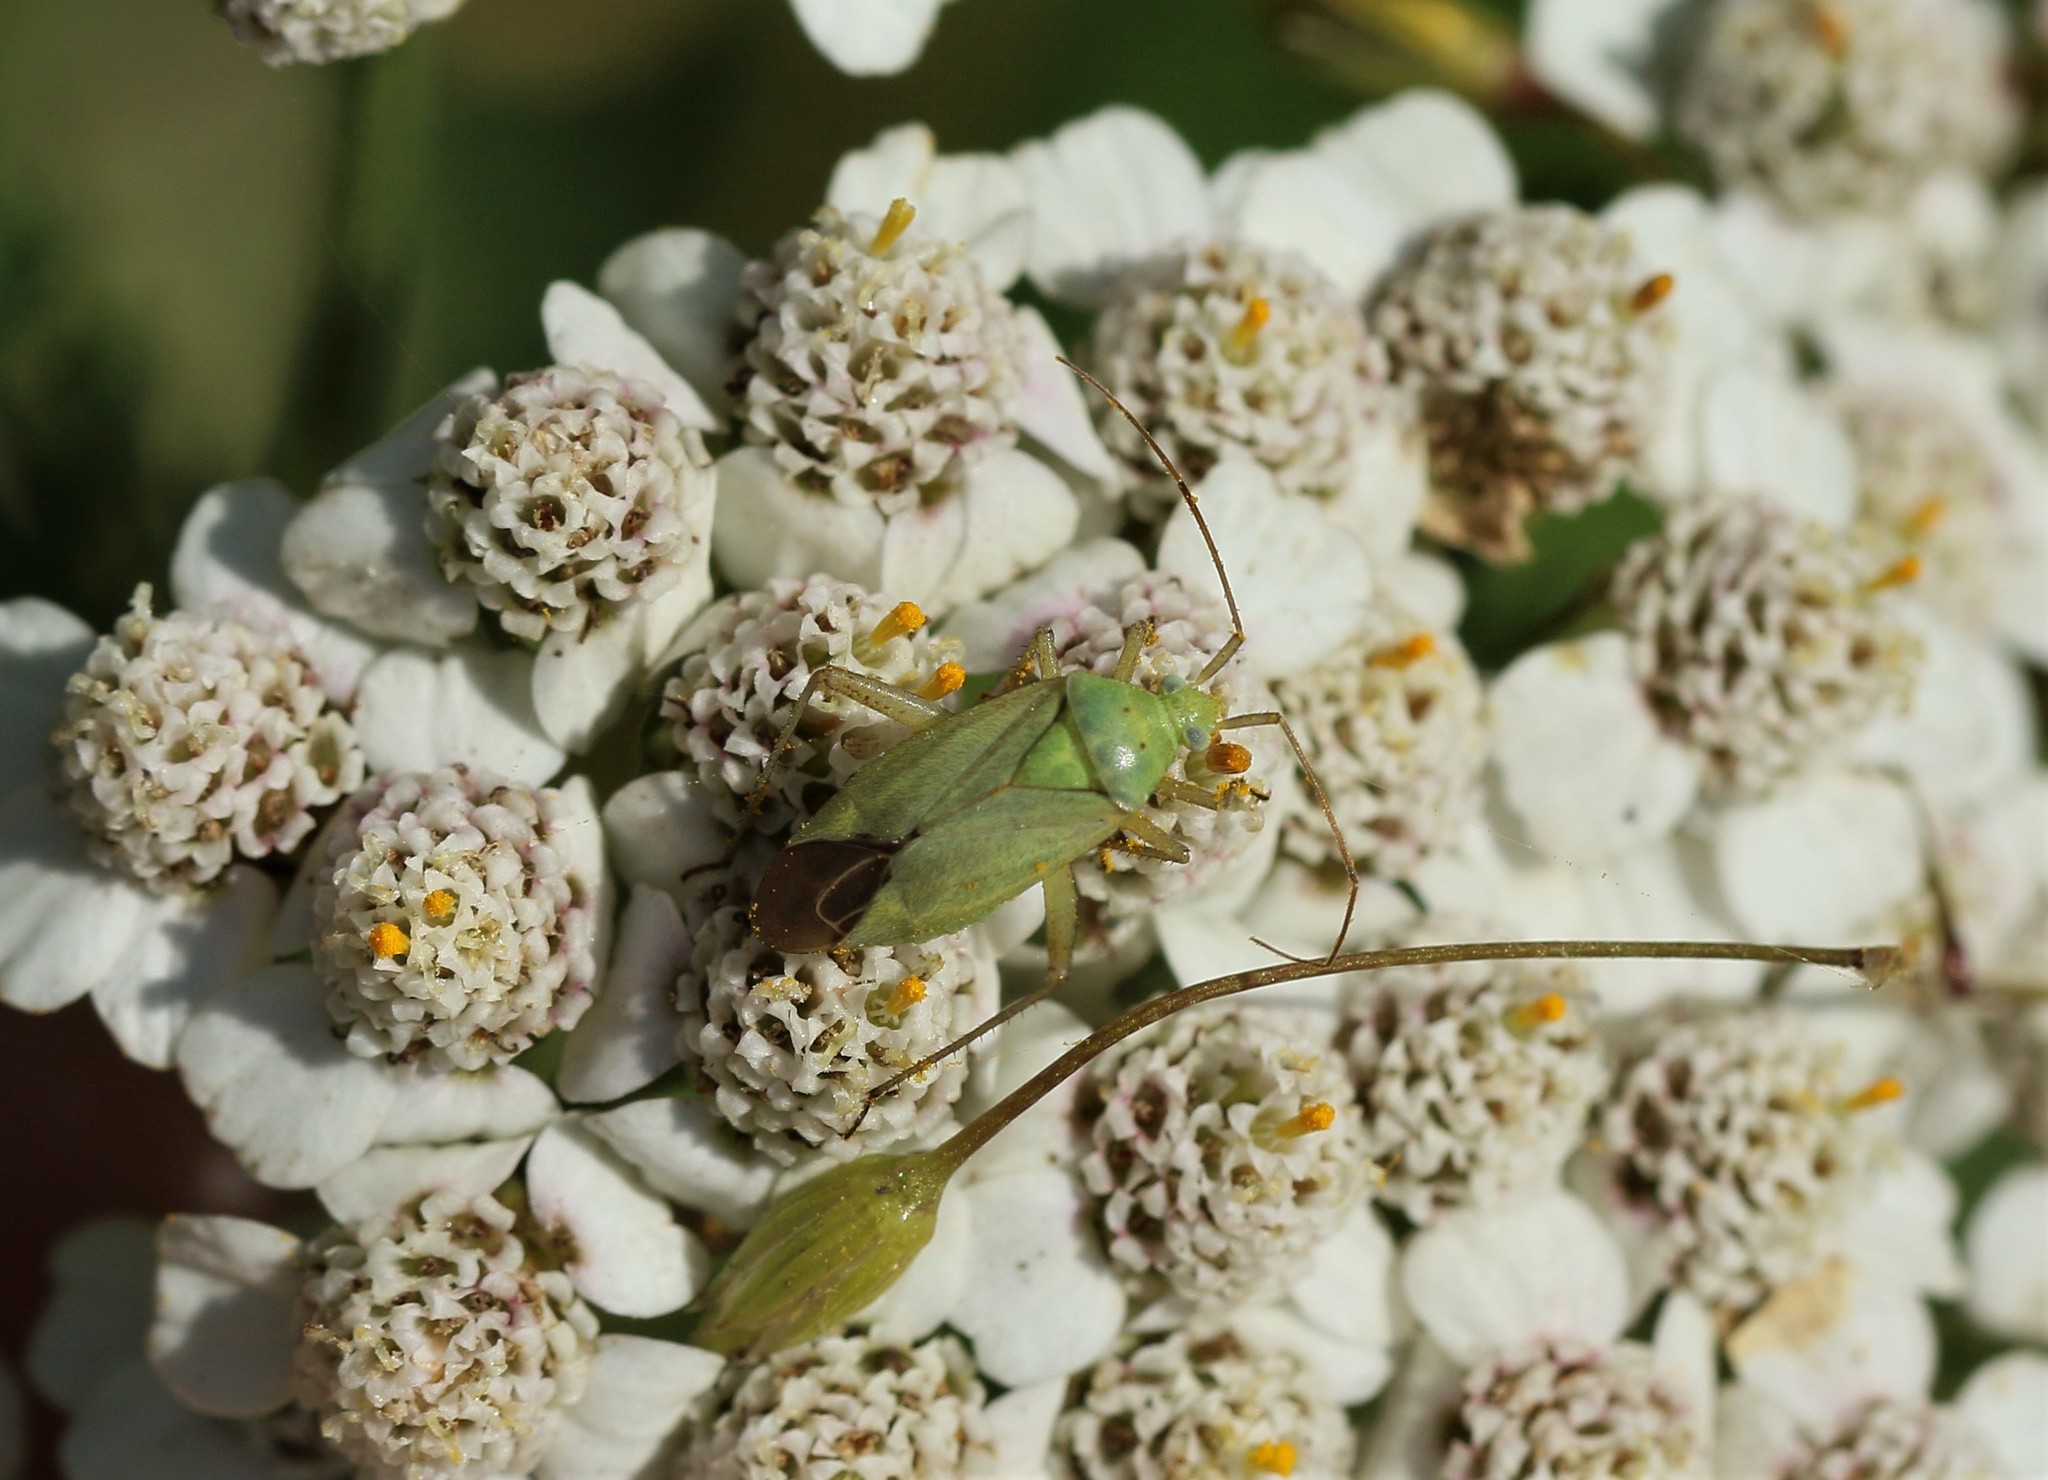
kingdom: Animalia
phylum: Arthropoda
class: Insecta
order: Hemiptera
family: Miridae
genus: Closterotomus
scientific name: Closterotomus norvegicus
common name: Plant bug
